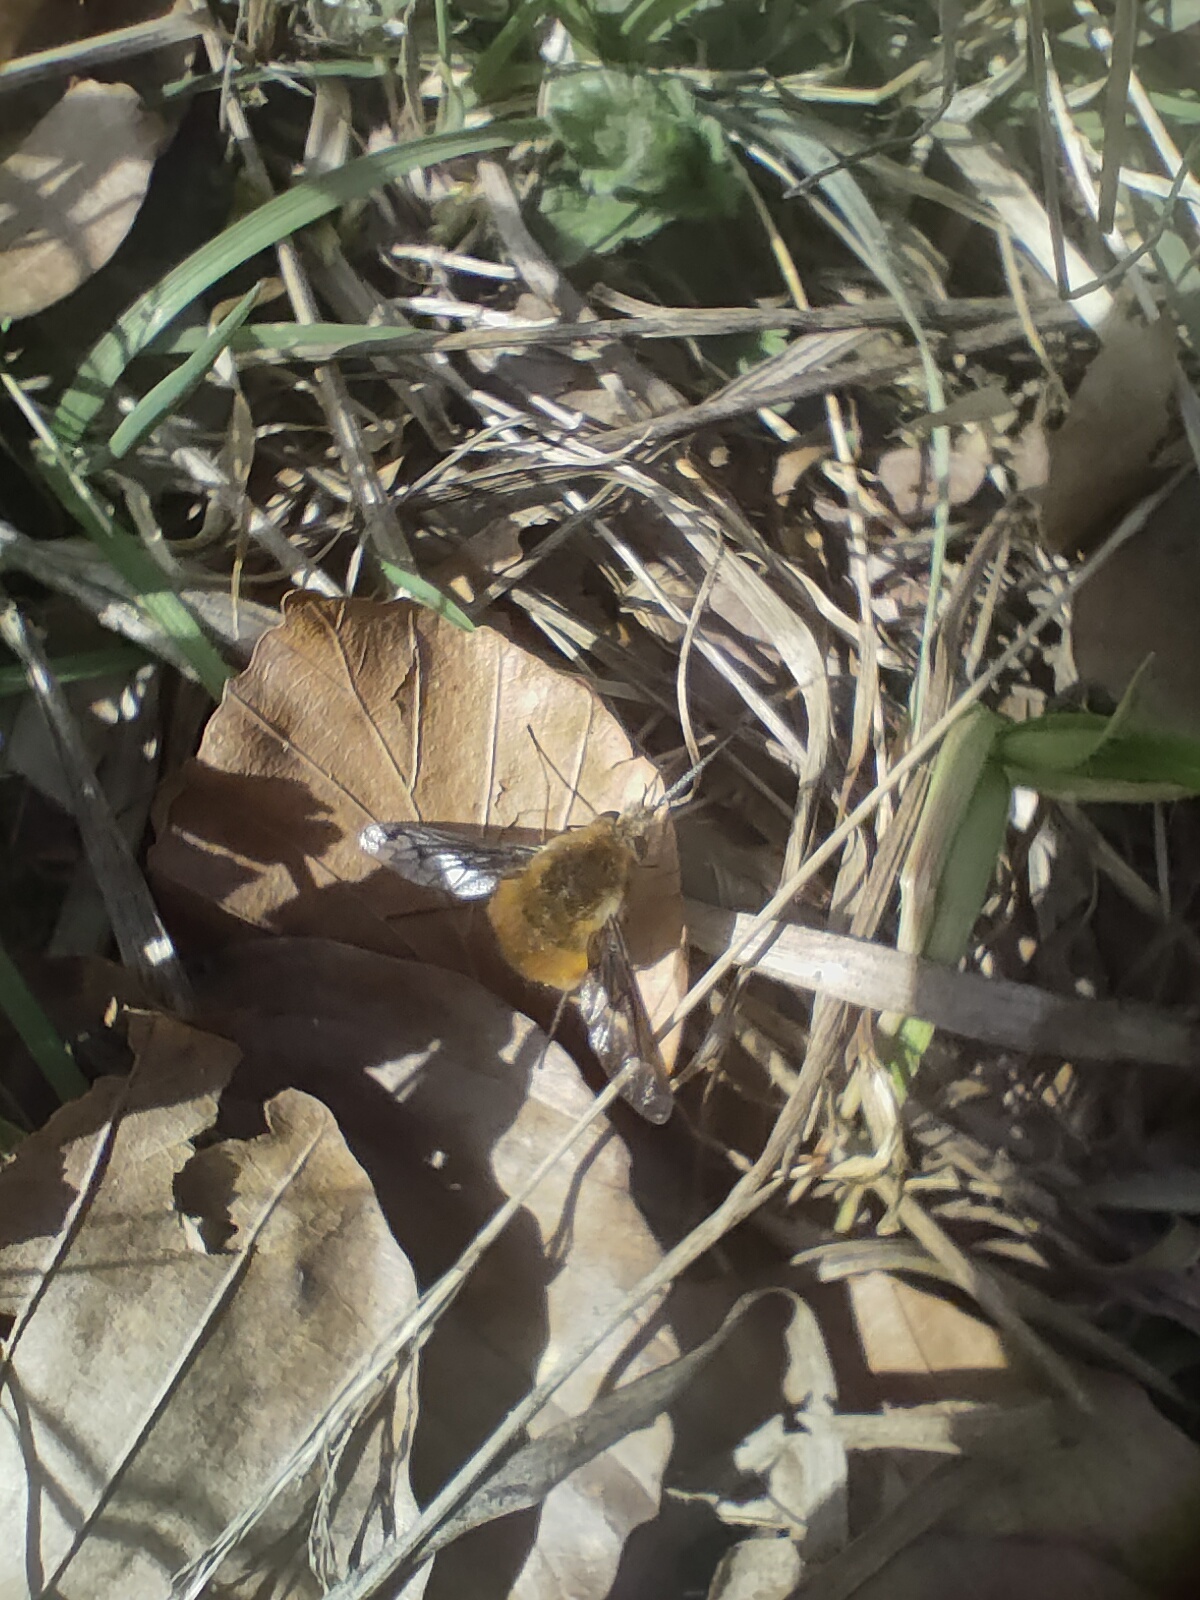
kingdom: Animalia
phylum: Arthropoda
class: Insecta
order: Diptera
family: Bombyliidae
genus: Bombylius
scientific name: Bombylius major
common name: Bee fly
